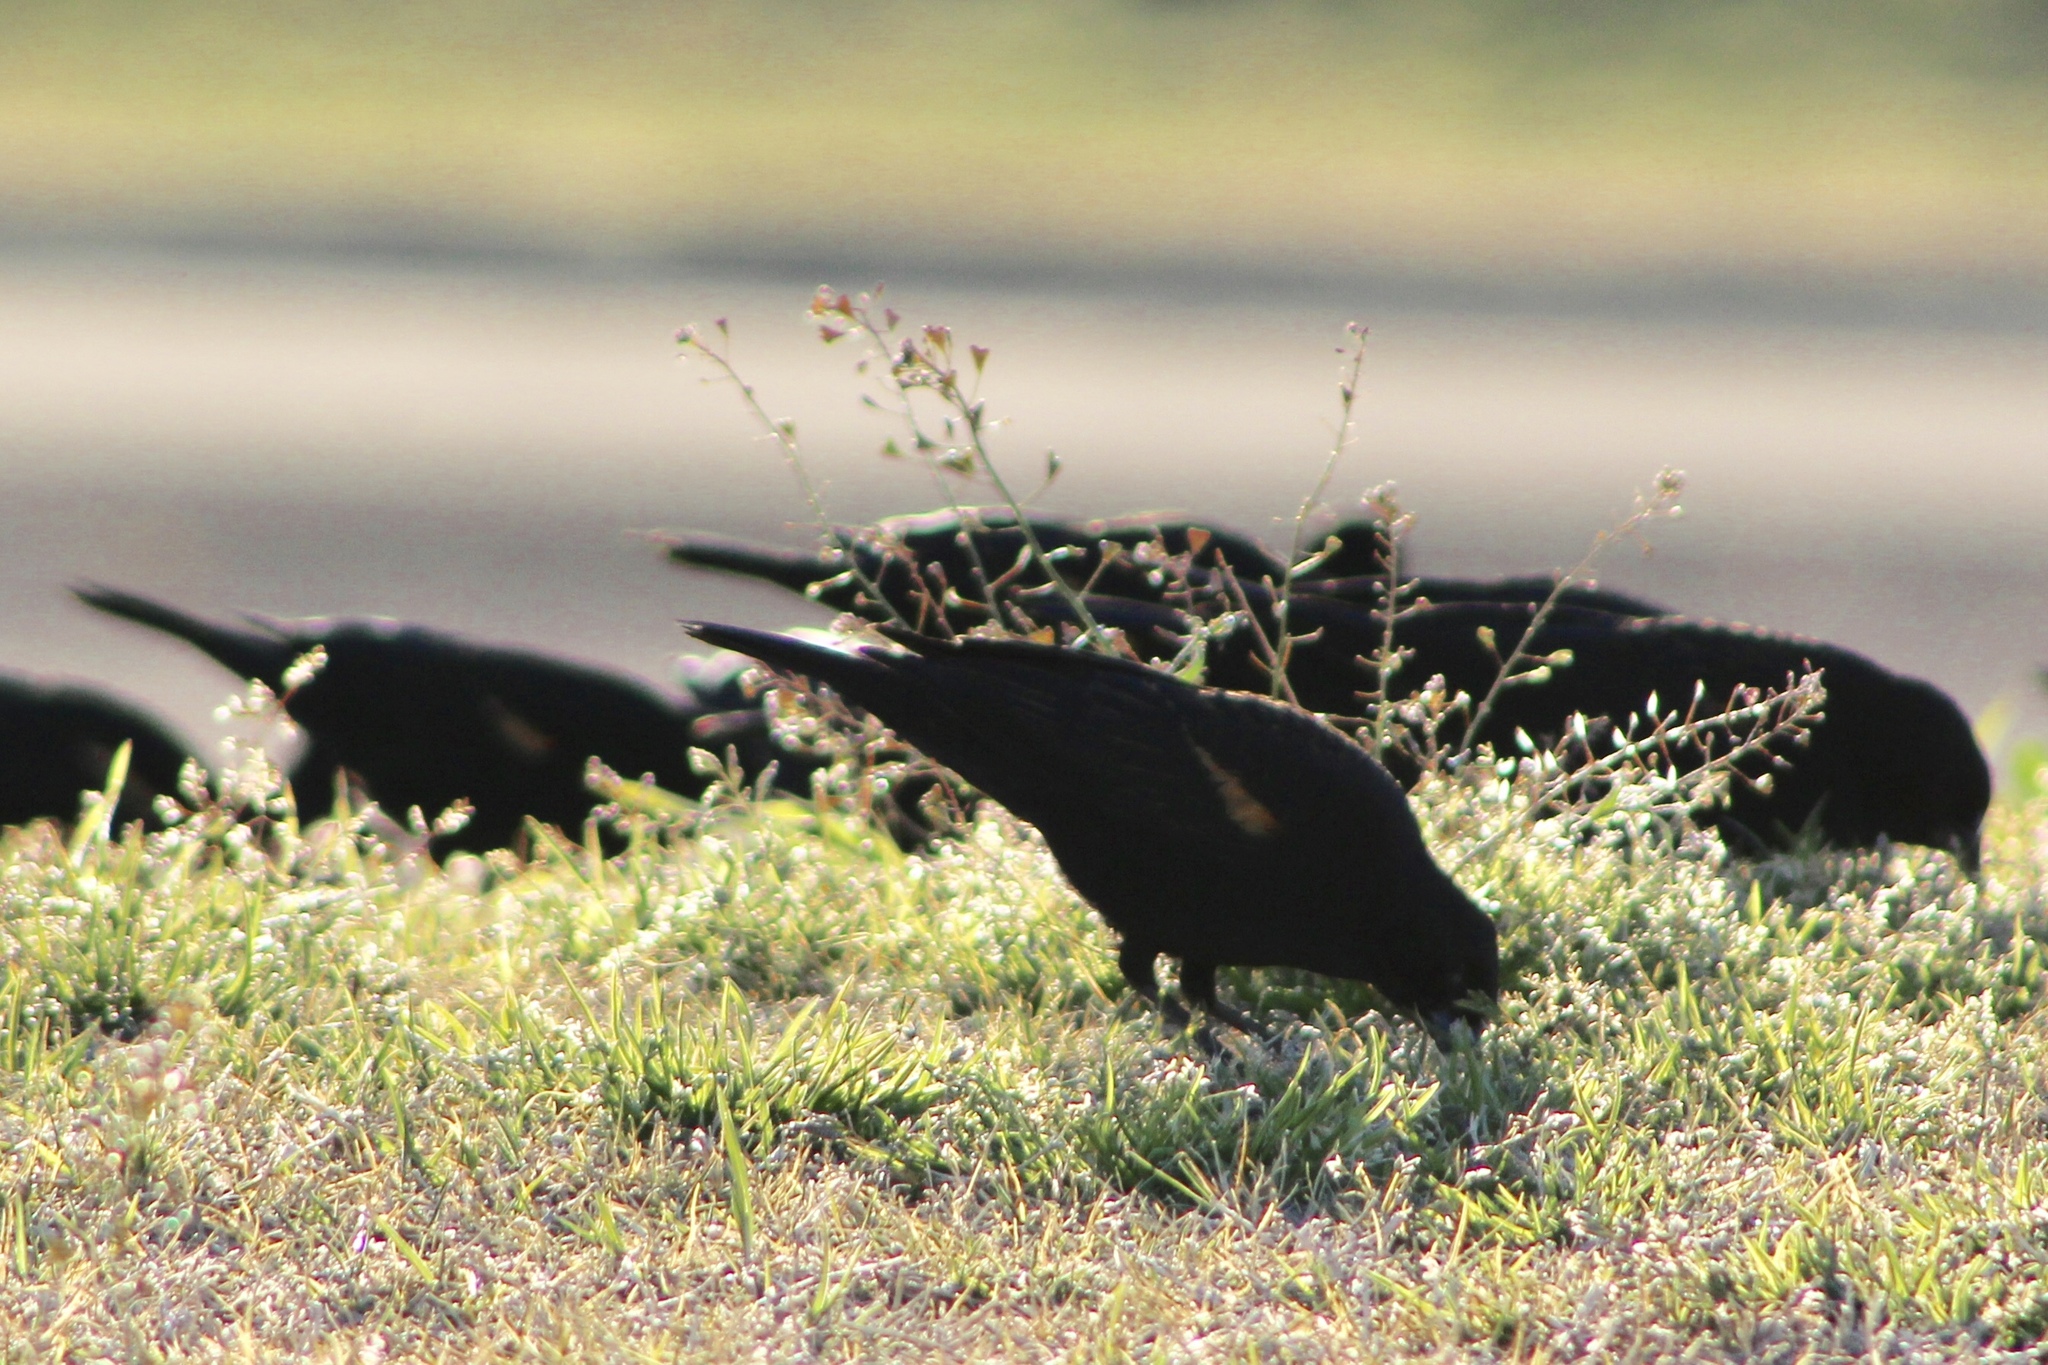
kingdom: Animalia
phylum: Chordata
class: Aves
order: Passeriformes
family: Icteridae
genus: Agelaius
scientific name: Agelaius phoeniceus
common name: Red-winged blackbird
